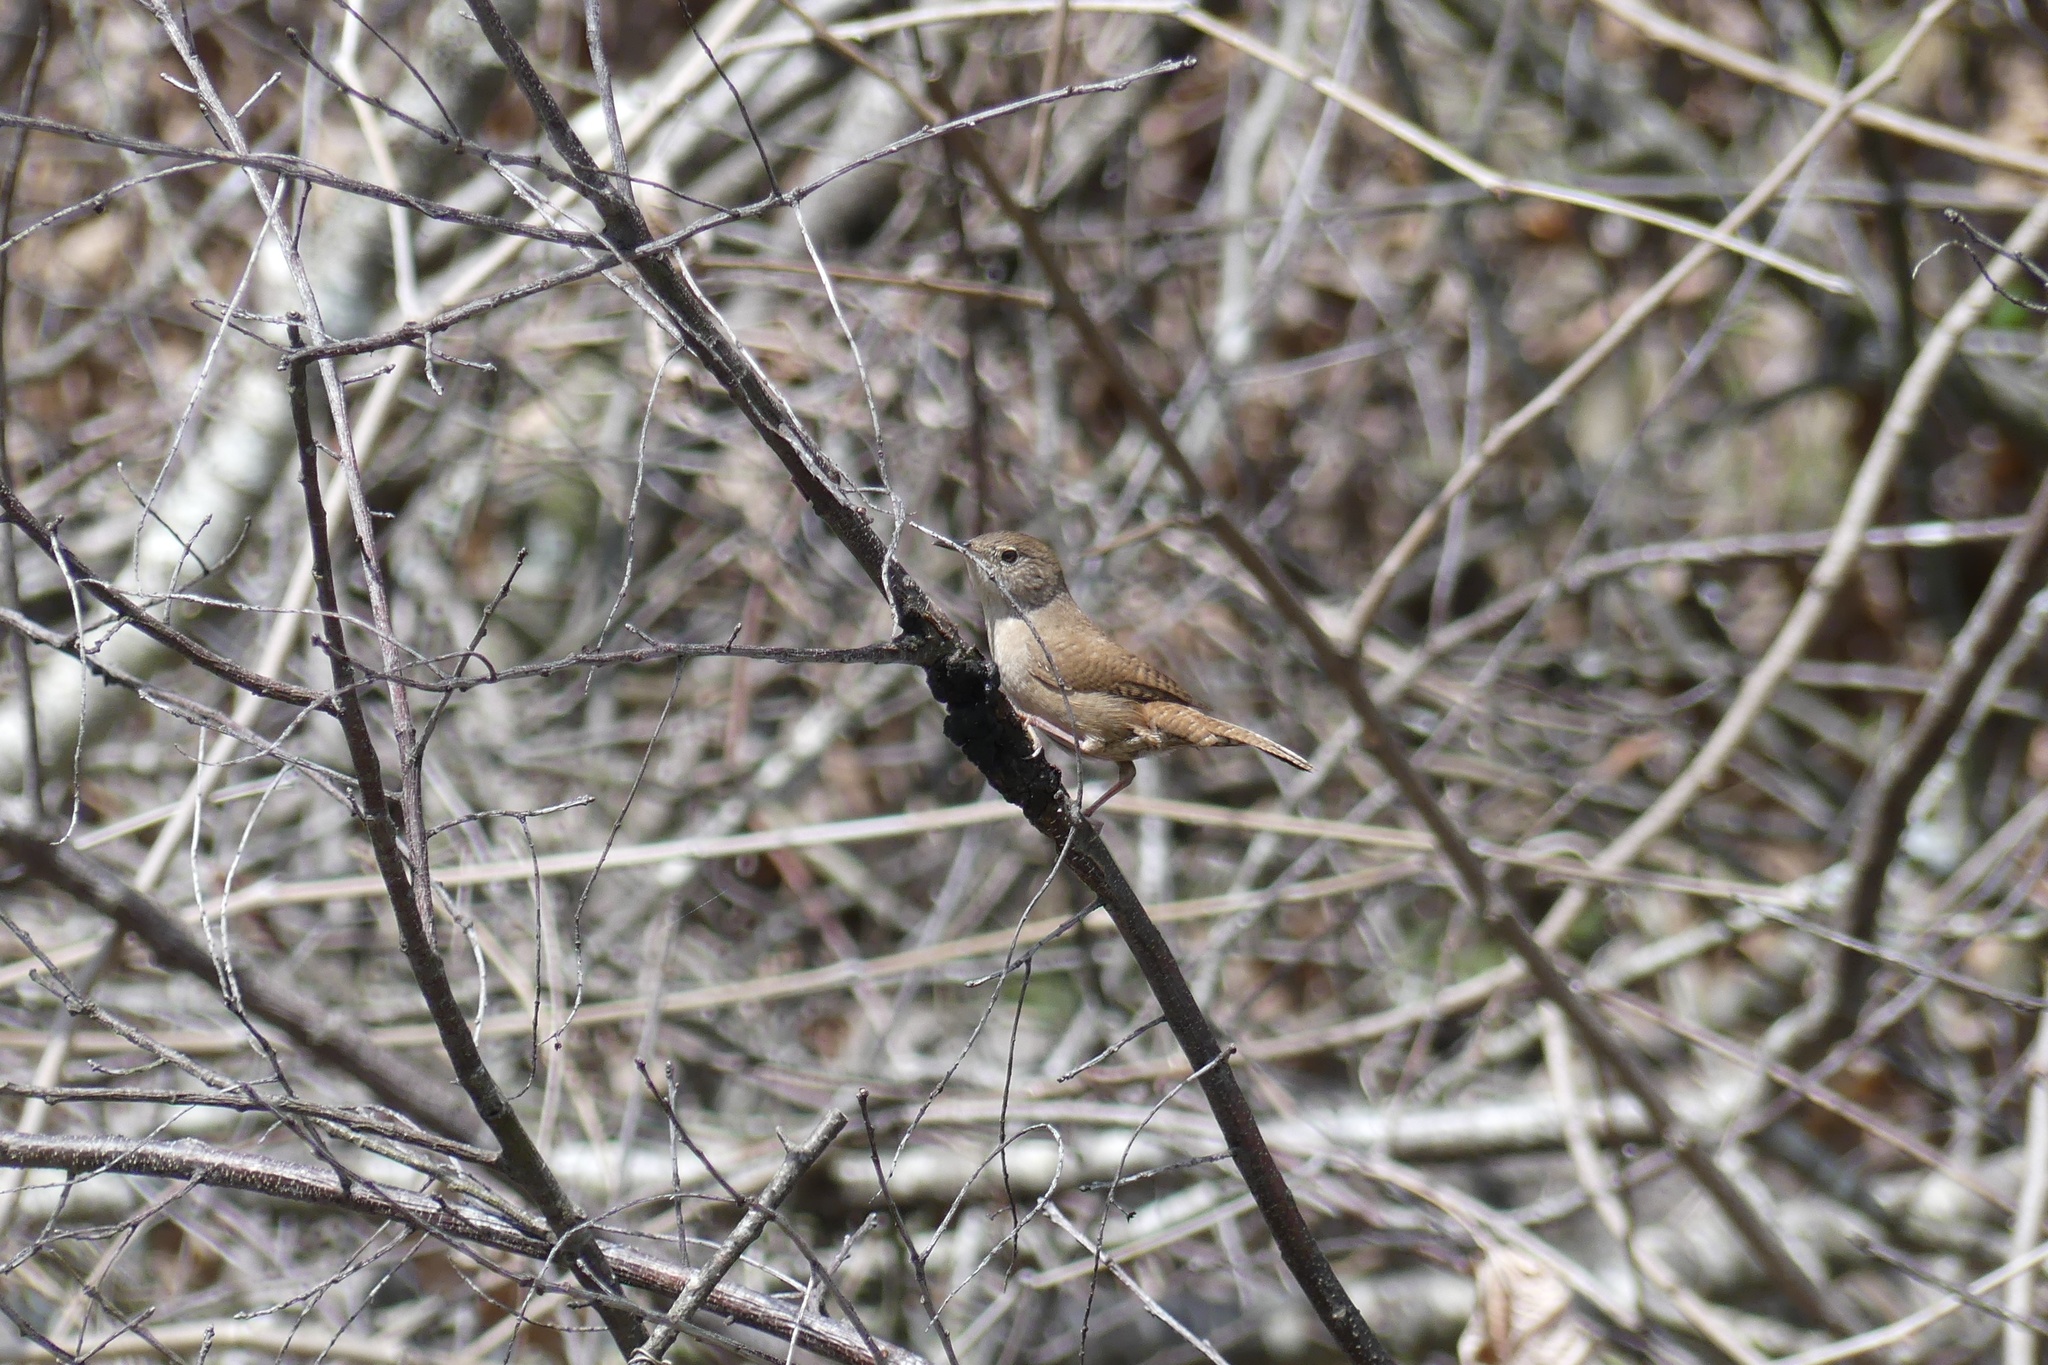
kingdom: Animalia
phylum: Chordata
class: Aves
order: Passeriformes
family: Troglodytidae
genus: Troglodytes
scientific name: Troglodytes aedon
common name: House wren
